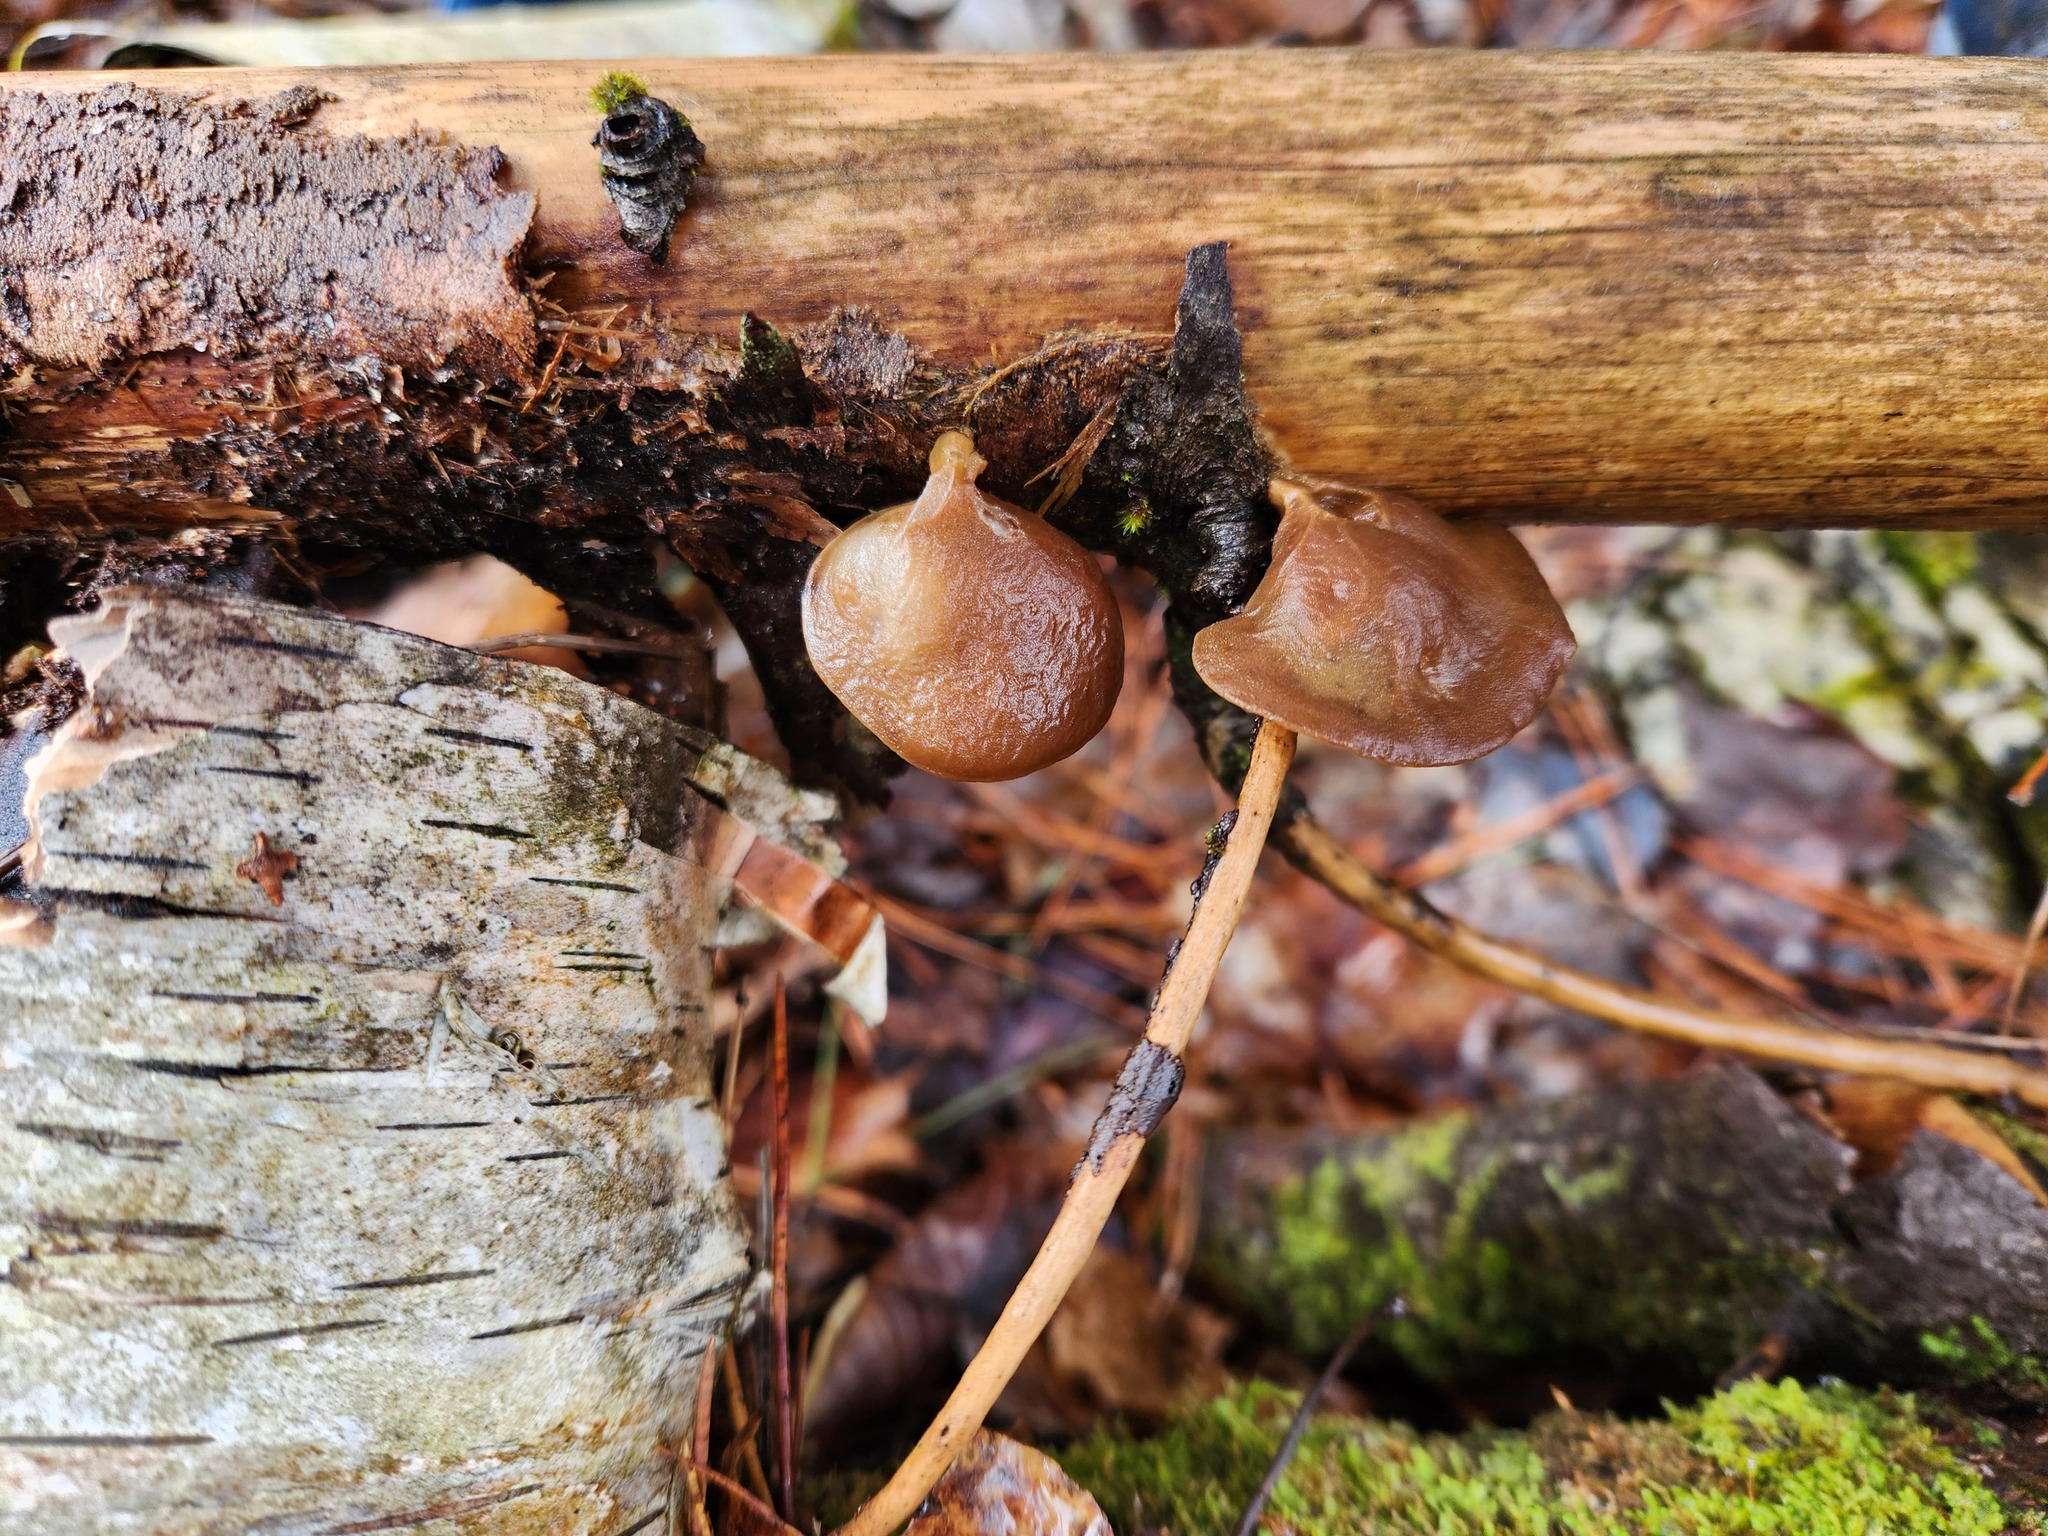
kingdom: Fungi
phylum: Basidiomycota
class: Agaricomycetes
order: Auriculariales
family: Auriculariaceae
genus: Auricularia
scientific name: Auricularia americana
